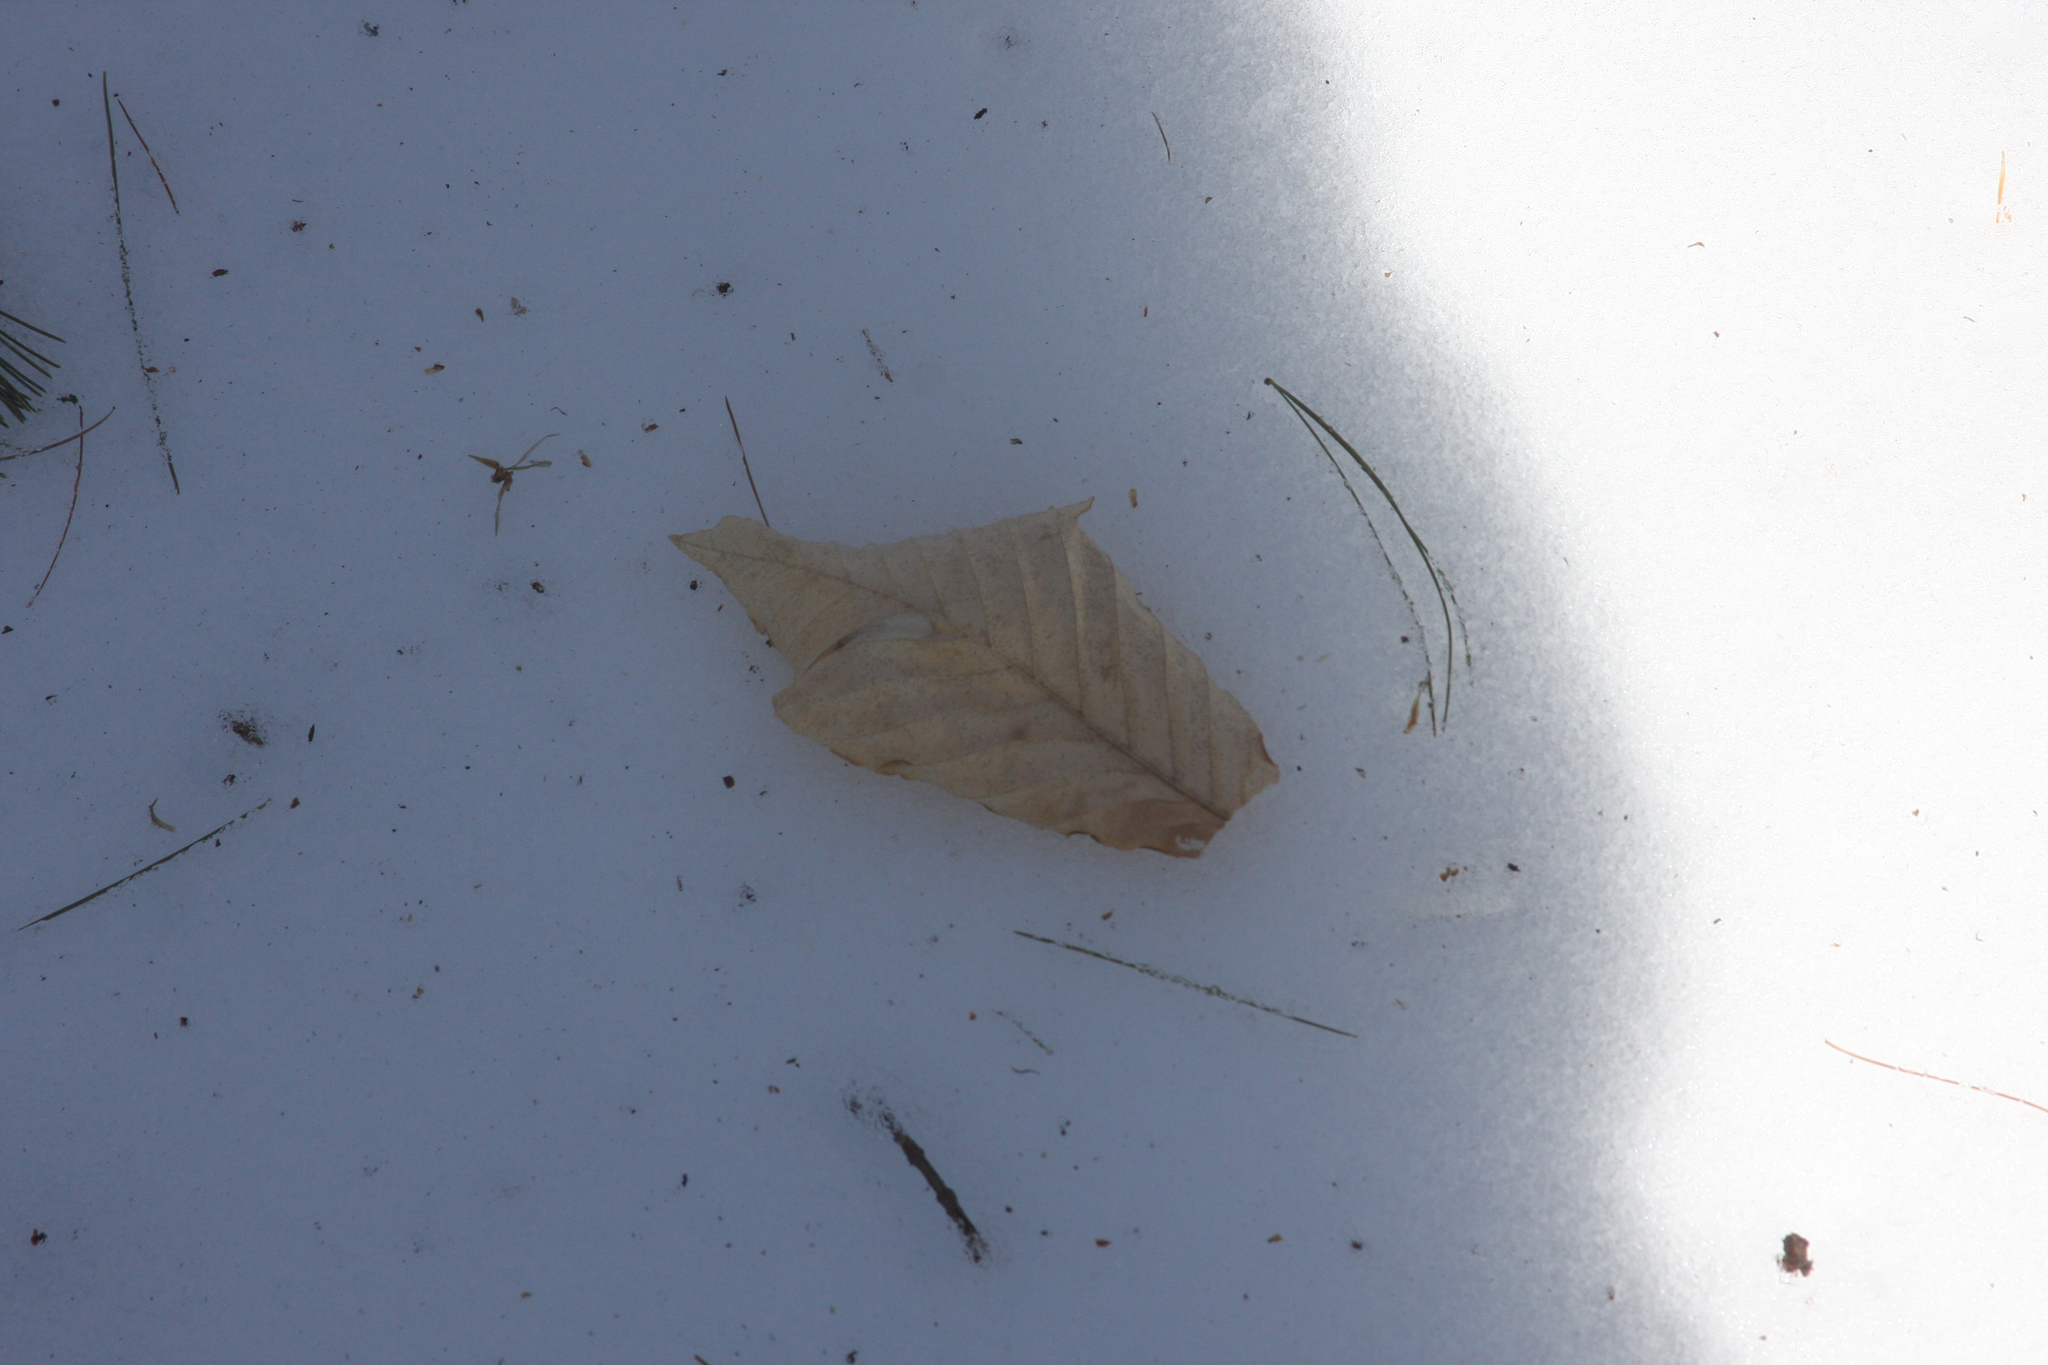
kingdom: Plantae
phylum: Tracheophyta
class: Magnoliopsida
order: Fagales
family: Fagaceae
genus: Fagus
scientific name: Fagus grandifolia
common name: American beech
